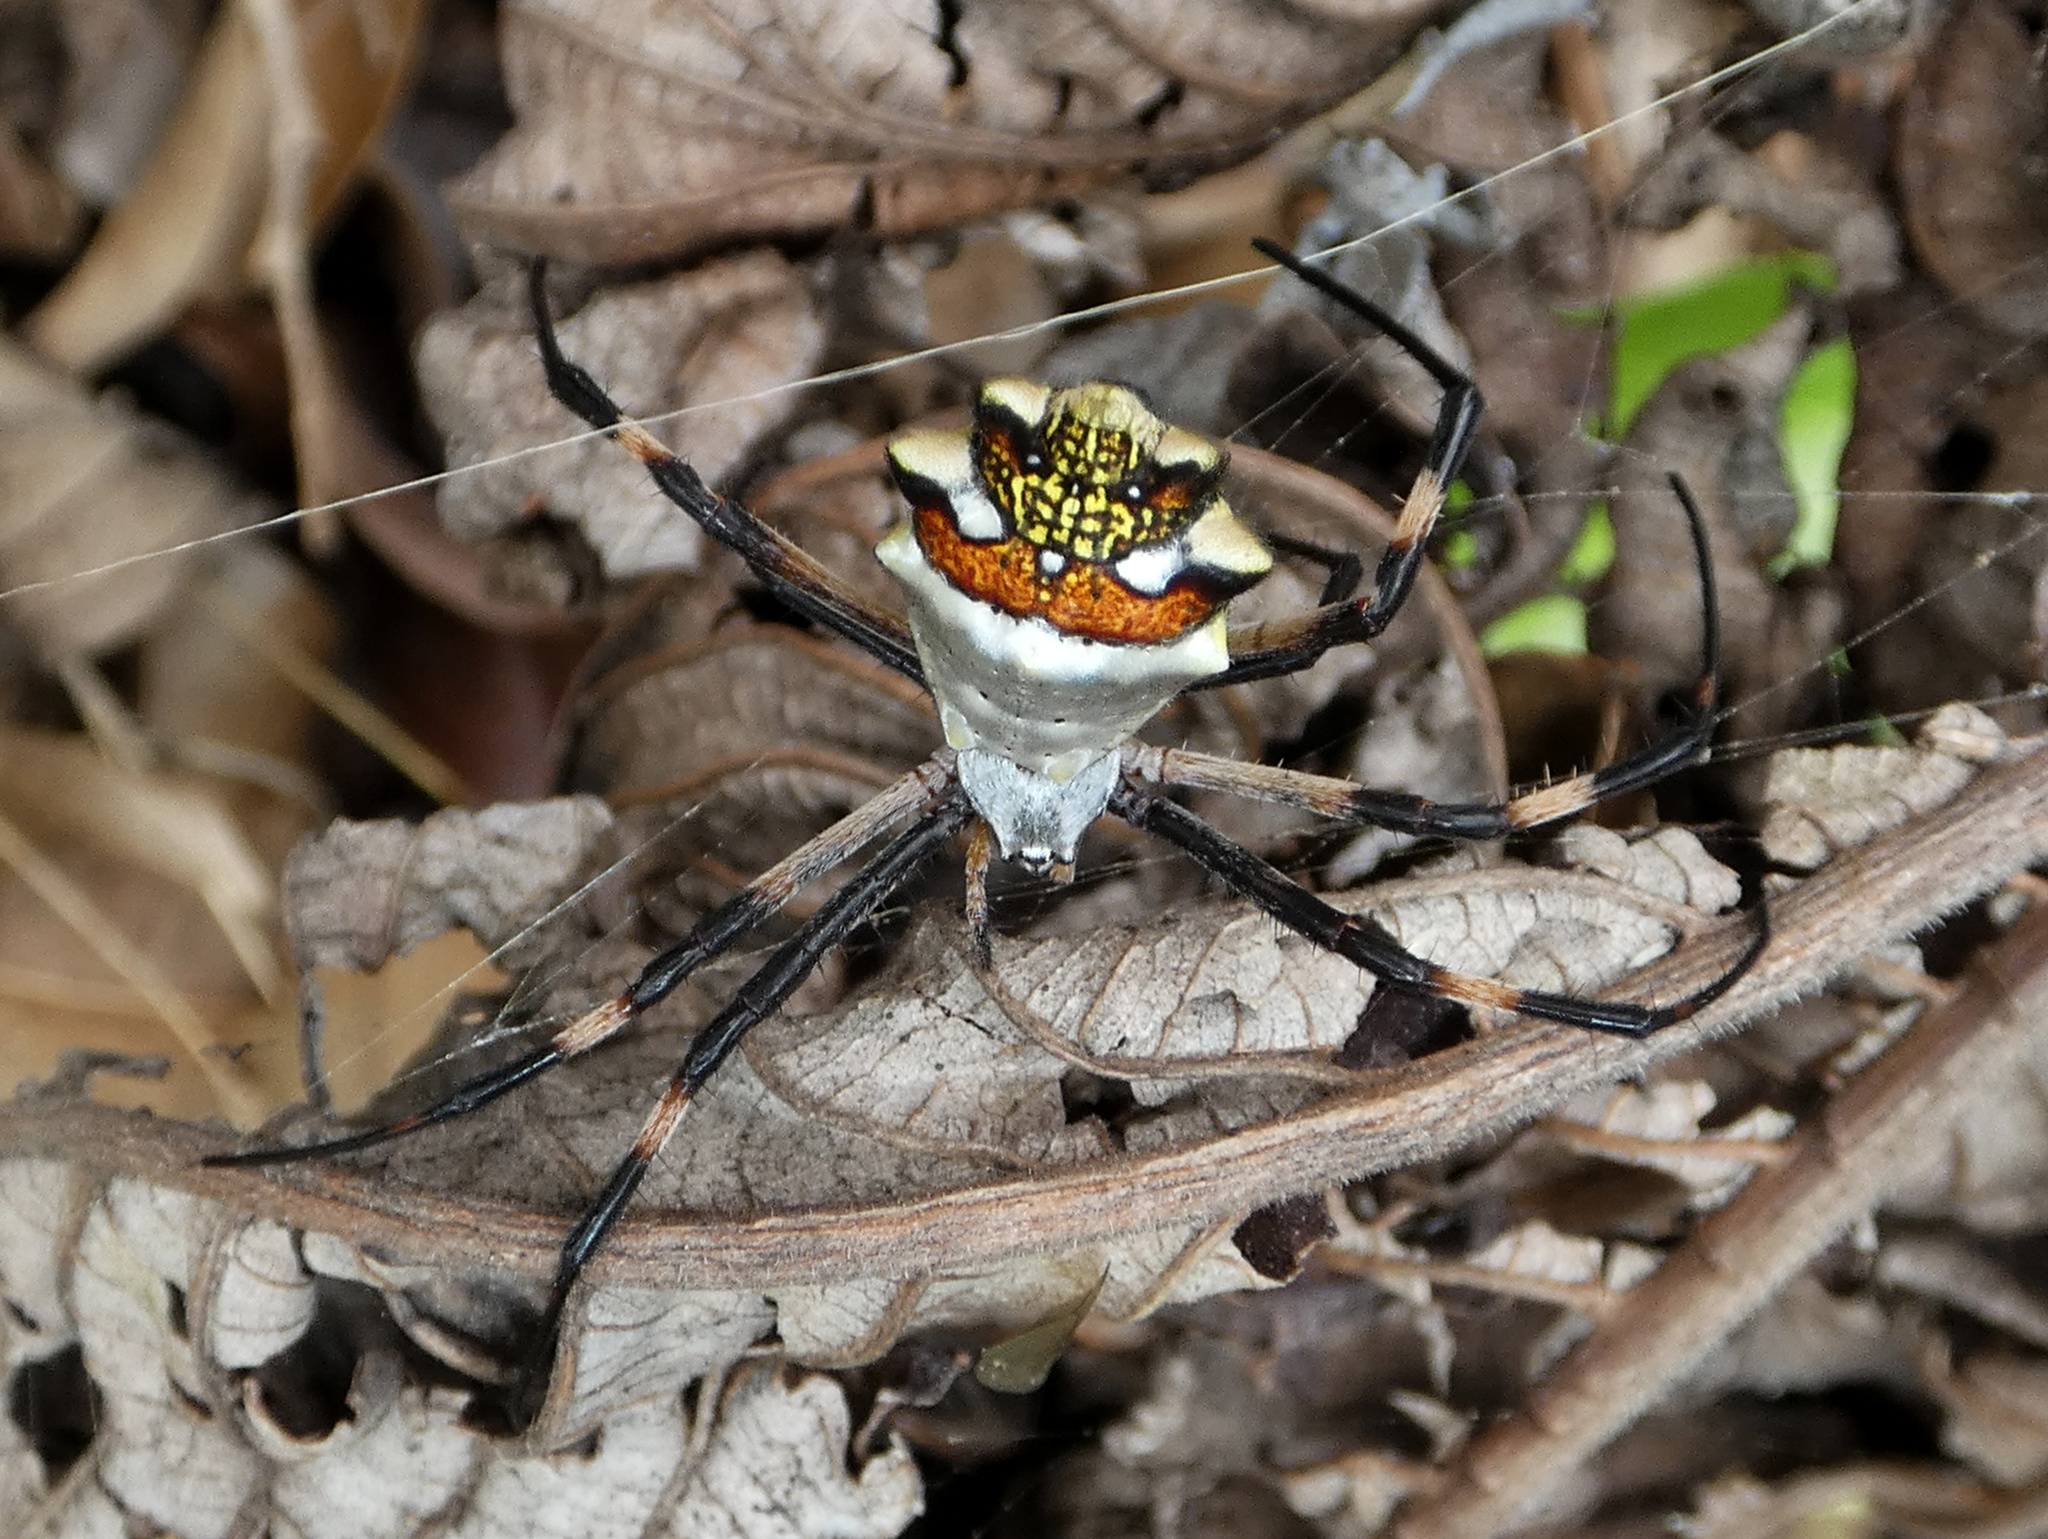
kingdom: Animalia
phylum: Arthropoda
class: Arachnida
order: Araneae
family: Araneidae
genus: Argiope
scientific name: Argiope argentata
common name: Orb weavers
